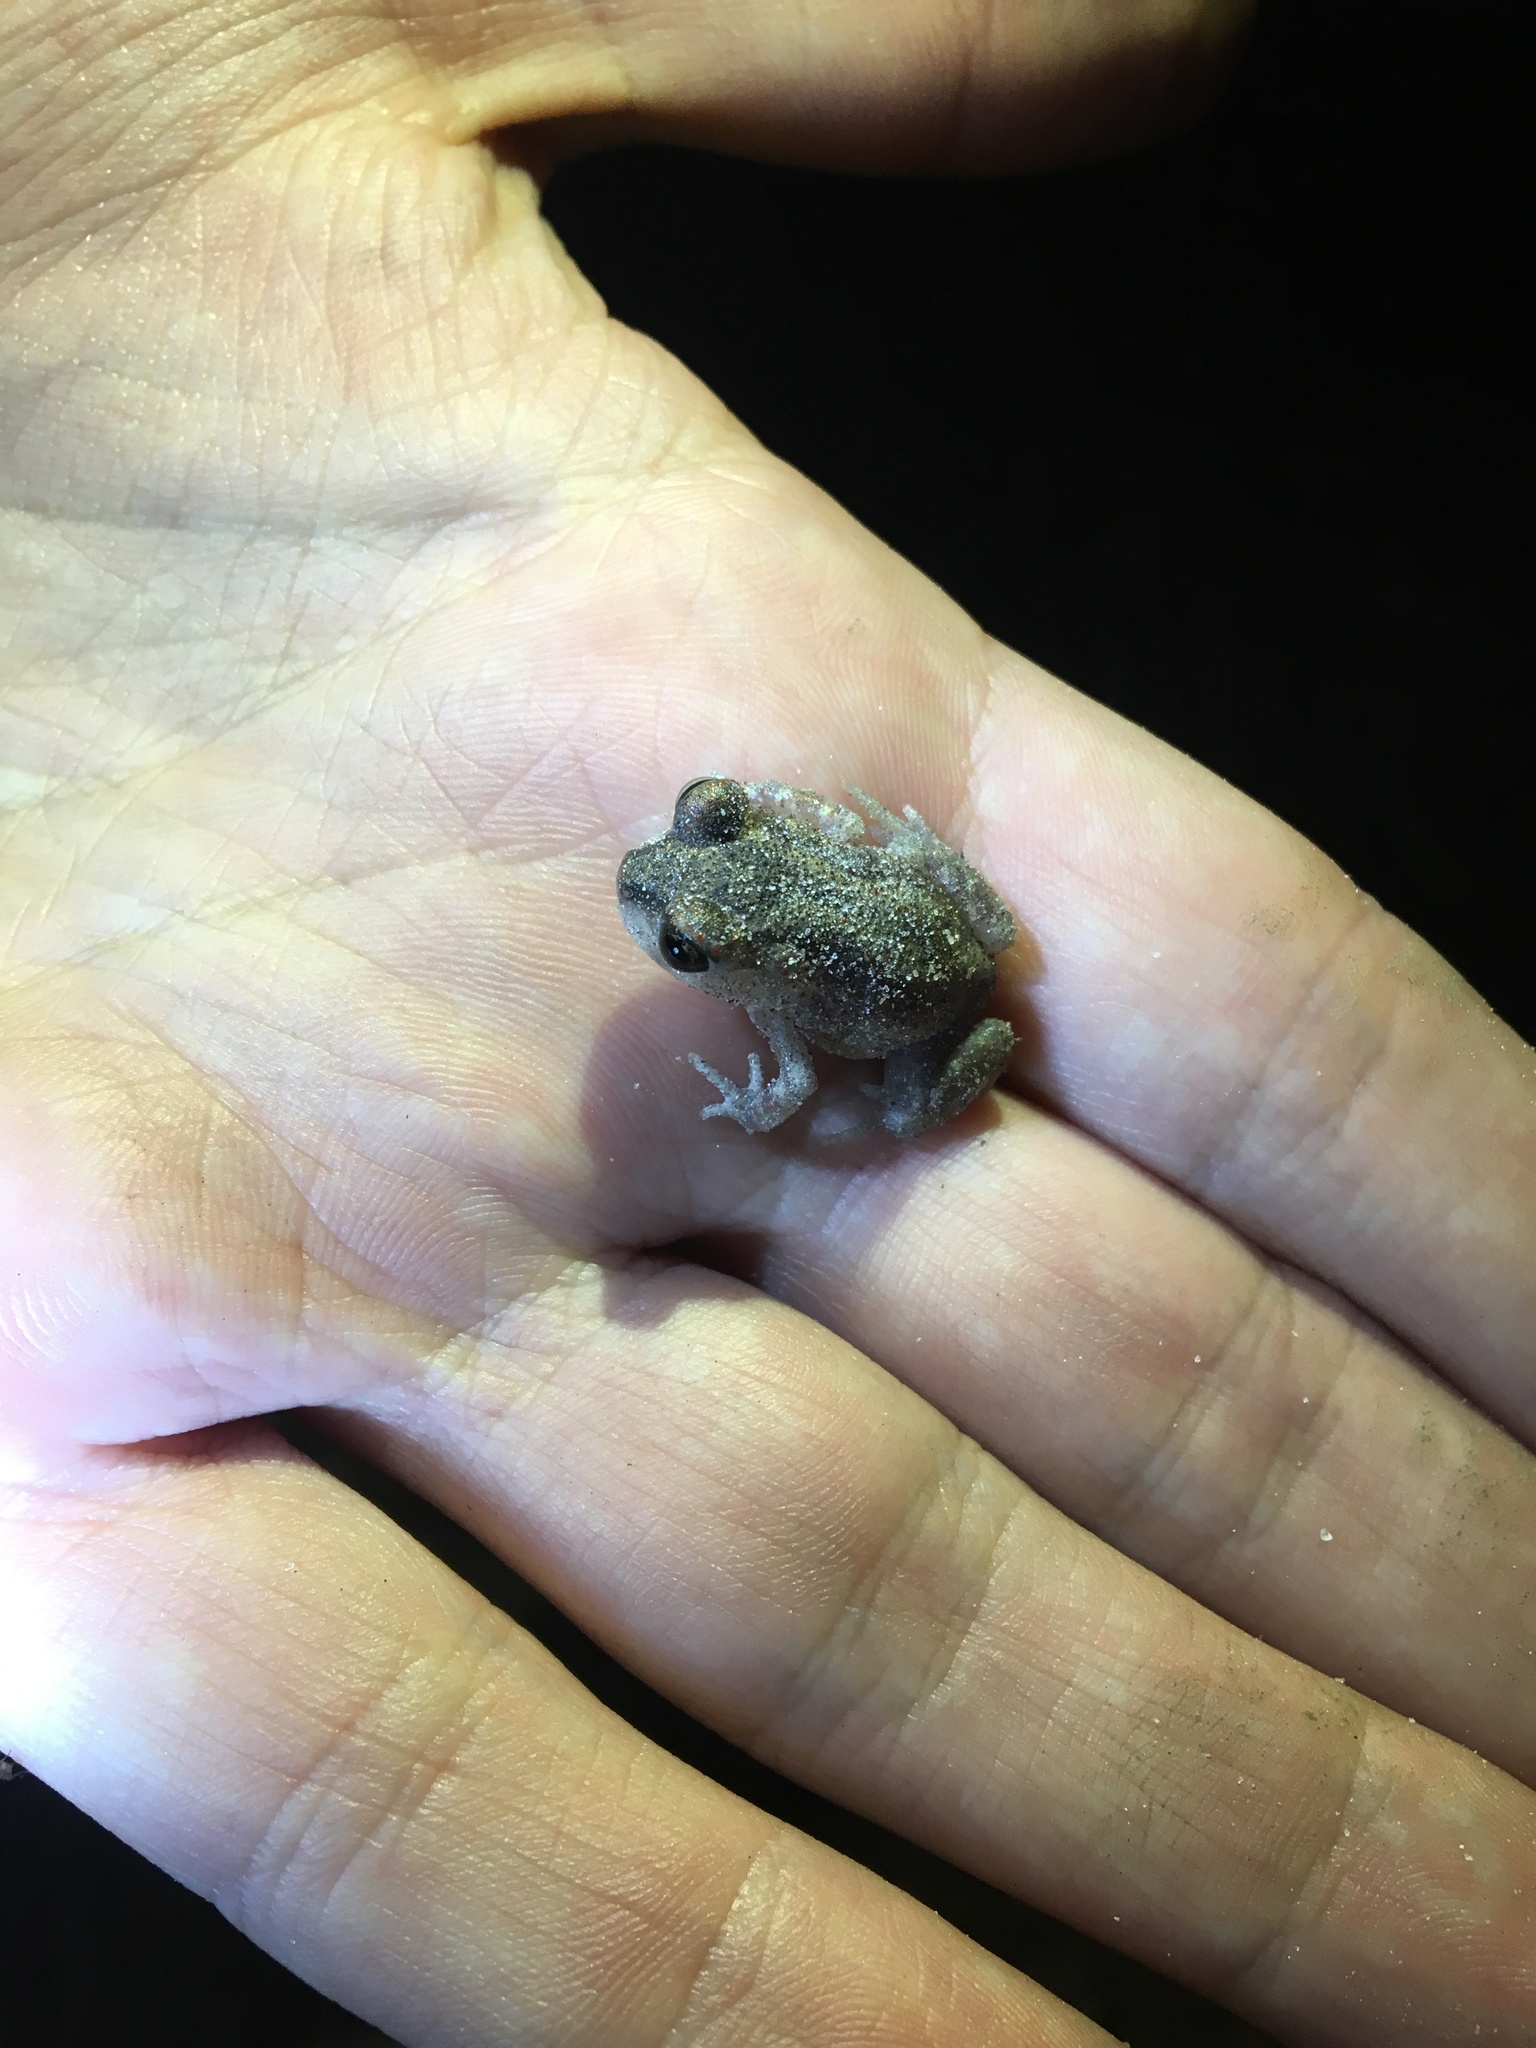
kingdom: Animalia
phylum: Chordata
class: Amphibia
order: Anura
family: Scaphiopodidae
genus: Scaphiopus
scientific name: Scaphiopus holbrookii
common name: Eastern spadefoot toad
